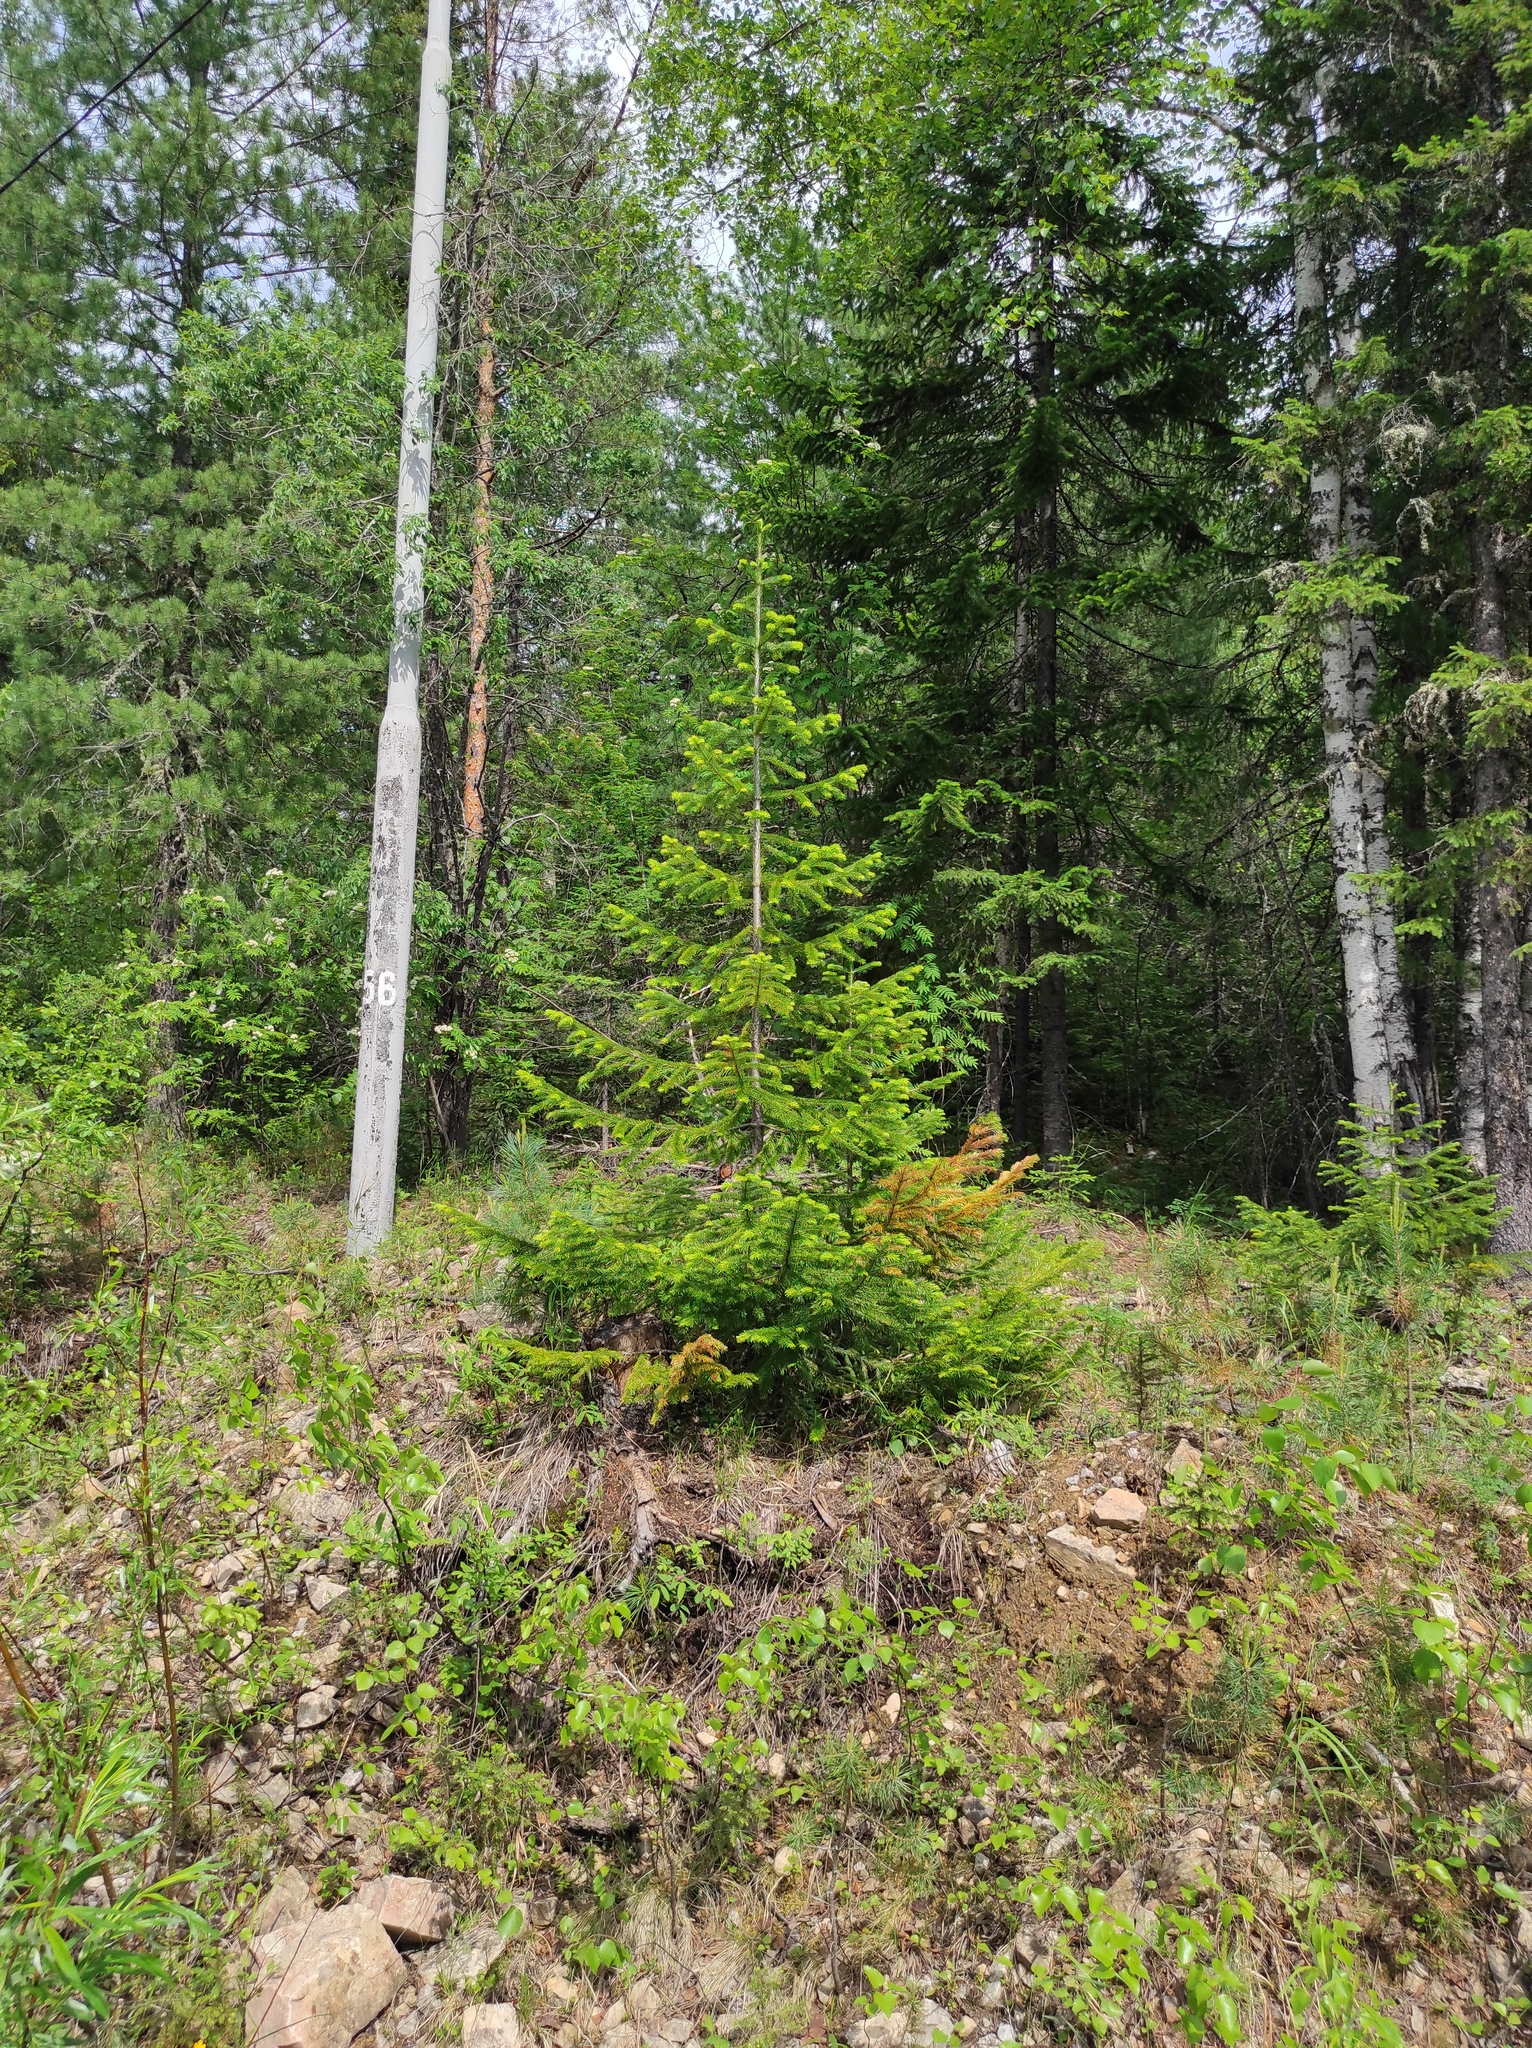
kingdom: Plantae
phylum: Tracheophyta
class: Pinopsida
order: Pinales
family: Pinaceae
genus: Picea
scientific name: Picea obovata
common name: Siberian spruce
